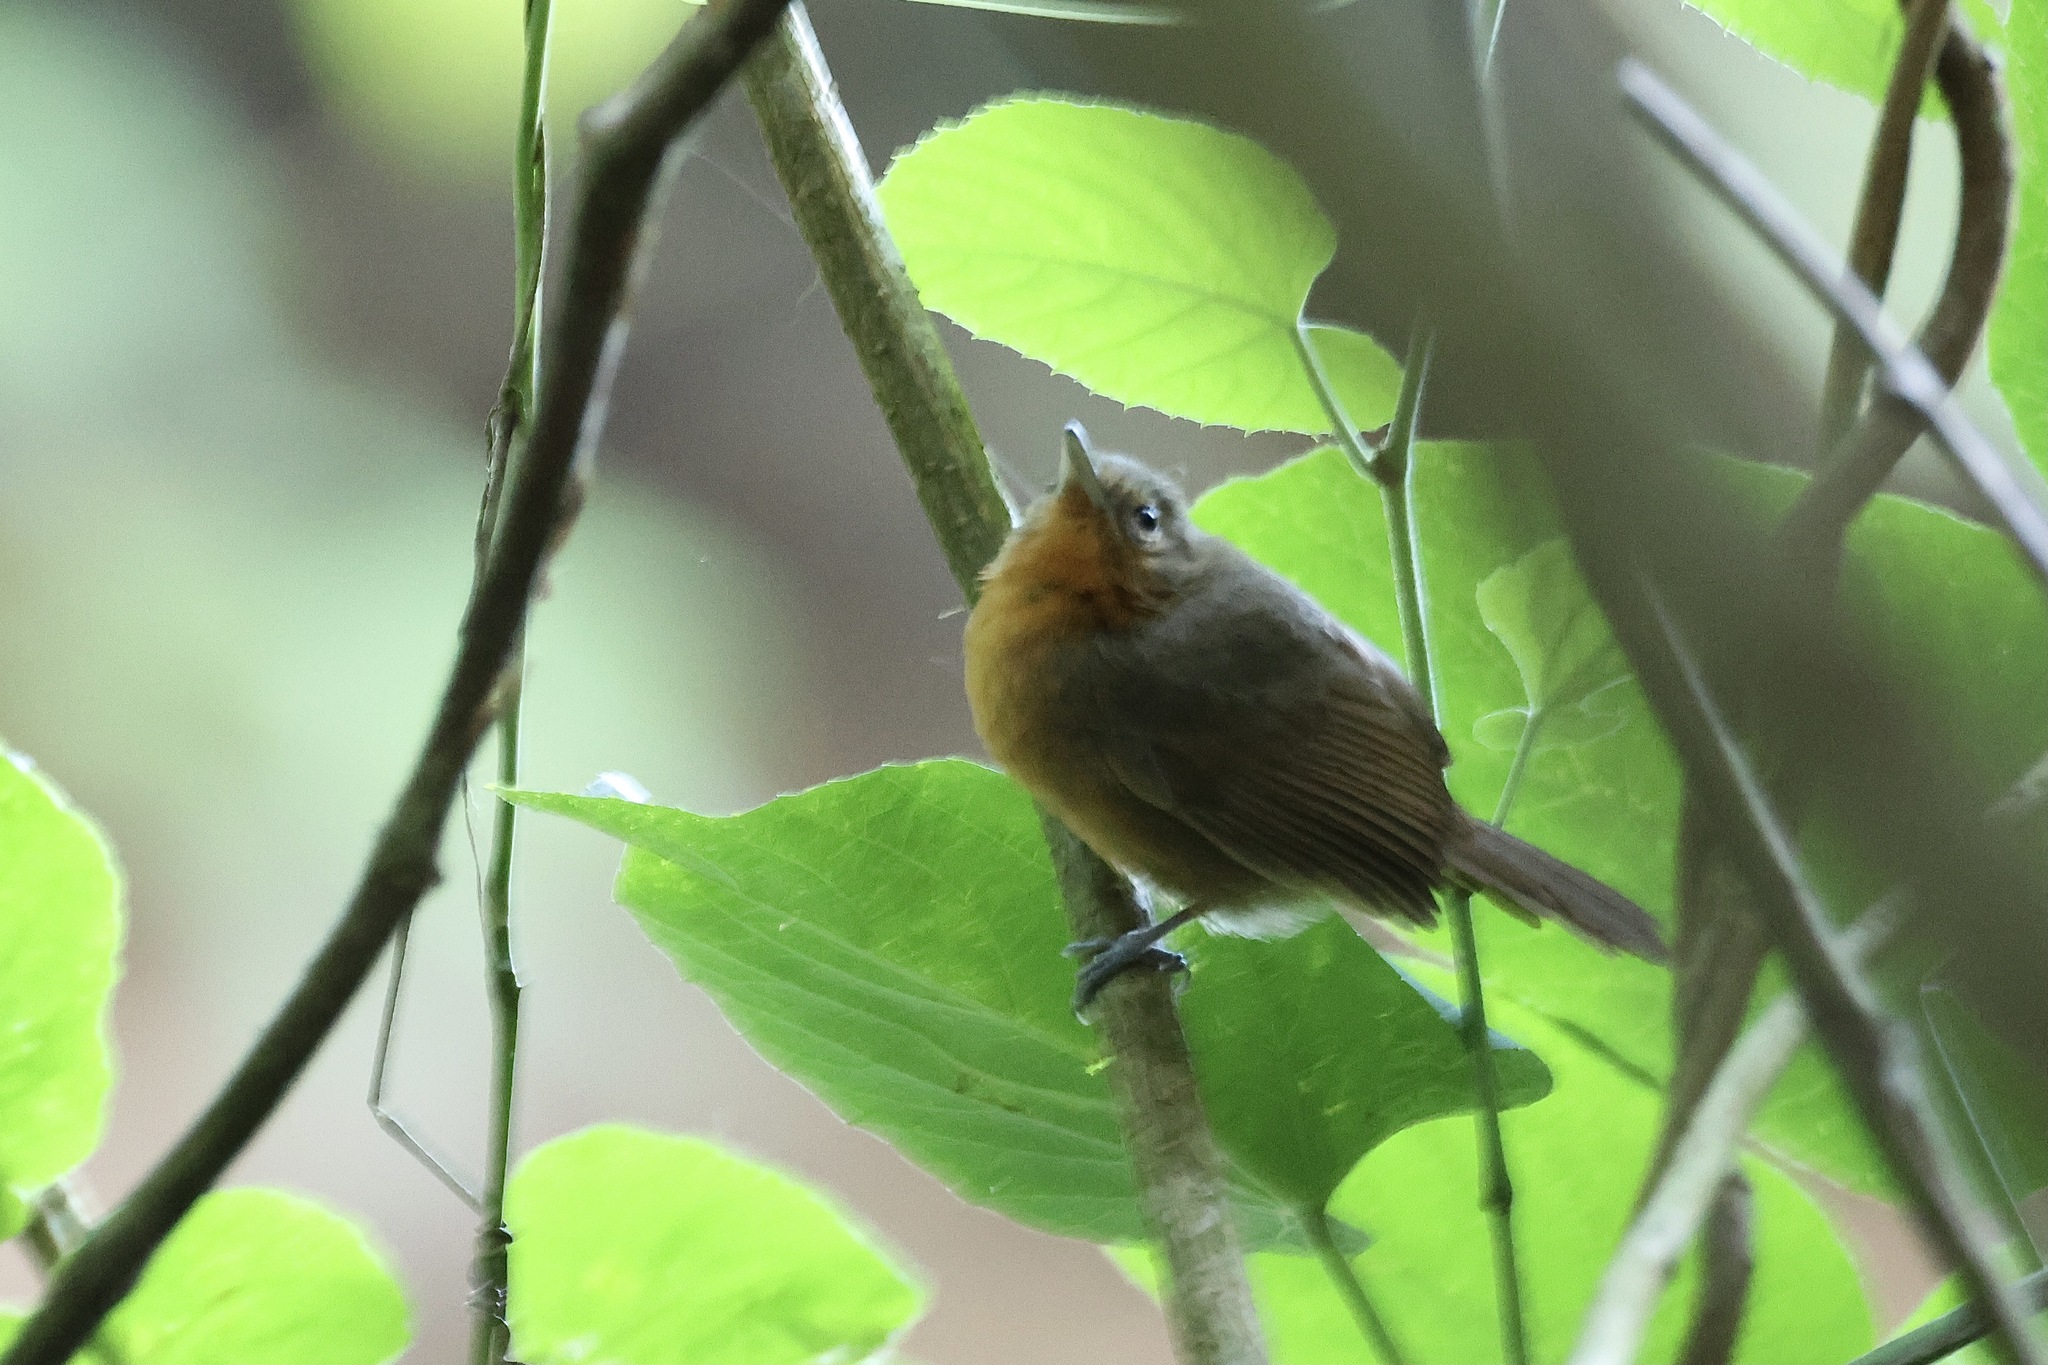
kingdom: Animalia
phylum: Chordata
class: Aves
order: Passeriformes
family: Thamnophilidae
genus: Cercomacra
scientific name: Cercomacra tyrannina
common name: Dusky antbird
